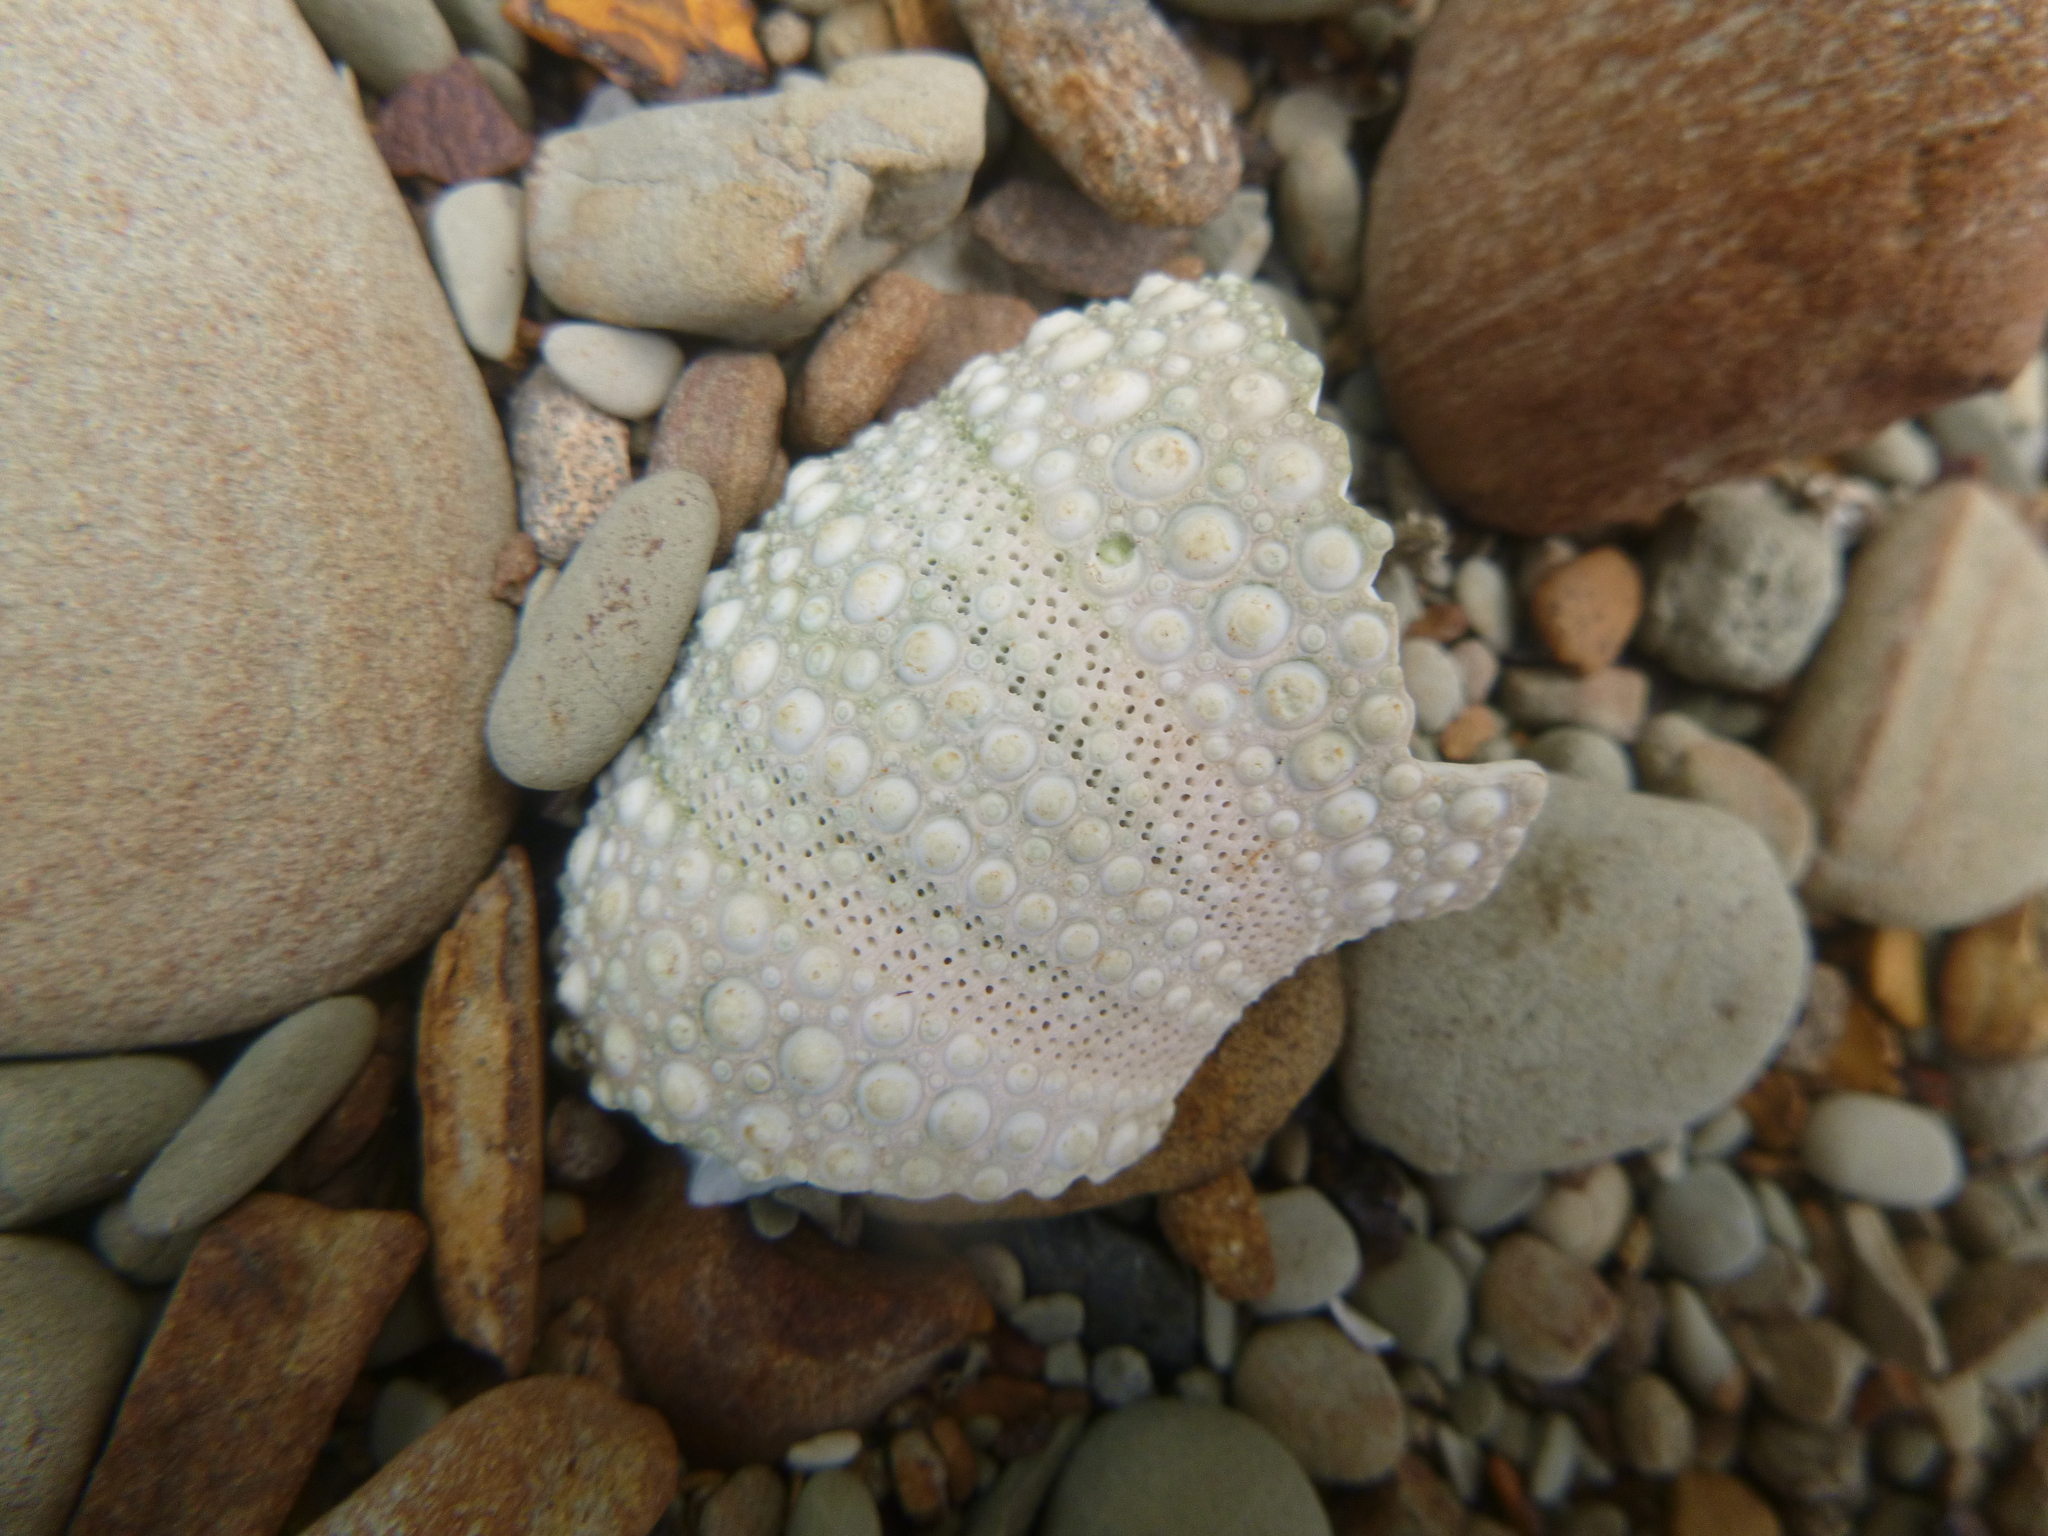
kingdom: Animalia
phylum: Echinodermata
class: Echinoidea
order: Camarodonta
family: Echinometridae
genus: Evechinus
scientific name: Evechinus chloroticus
